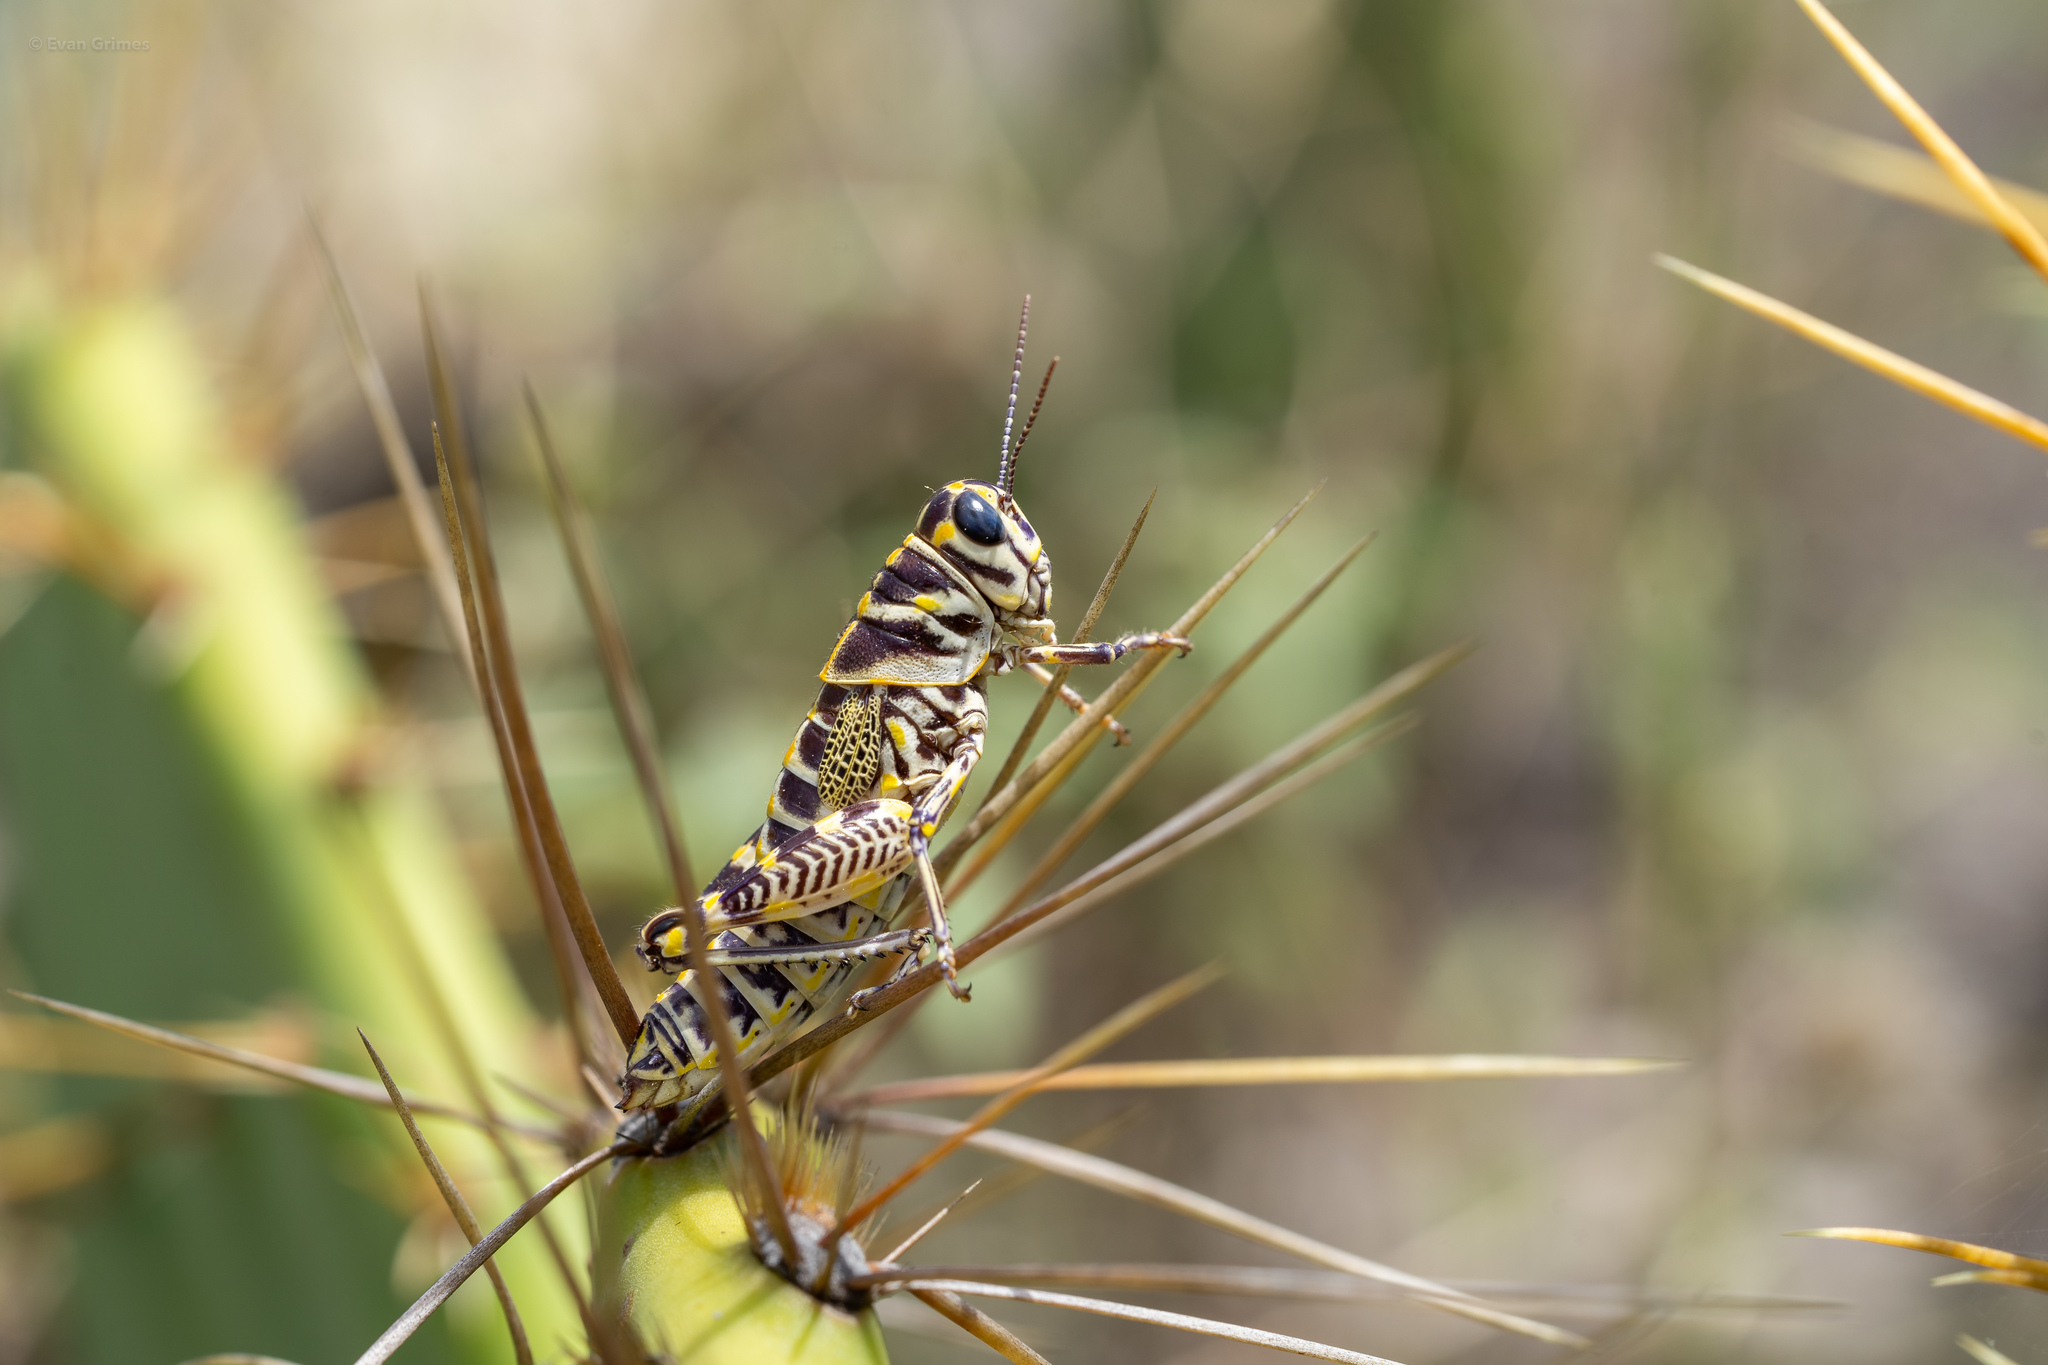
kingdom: Animalia
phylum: Arthropoda
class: Insecta
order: Orthoptera
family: Acrididae
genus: Dactylotum
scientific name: Dactylotum bicolor
